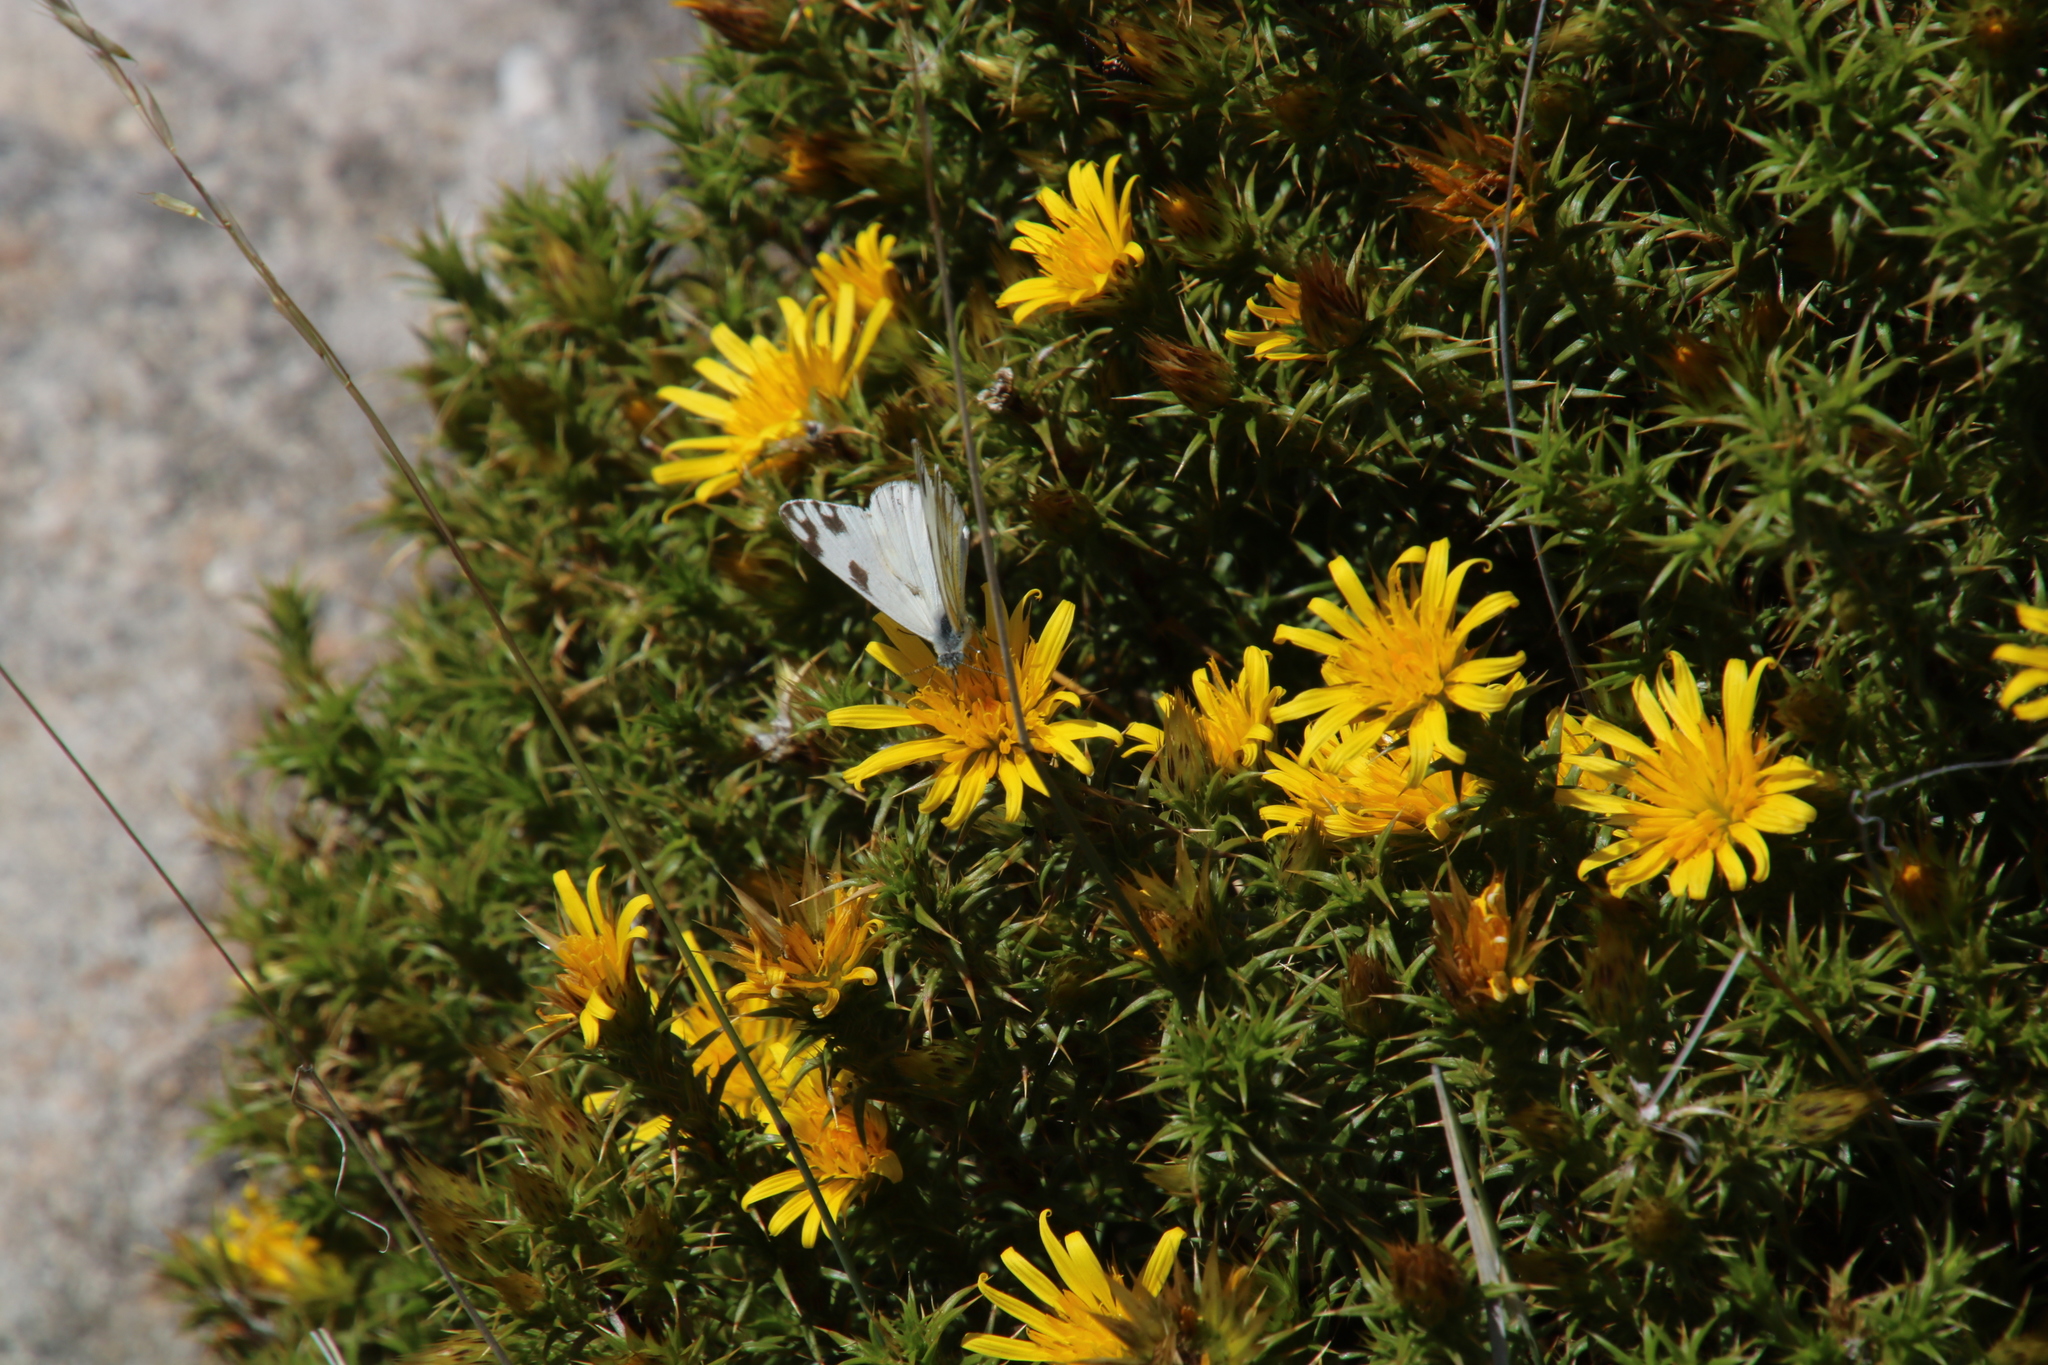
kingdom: Plantae
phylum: Tracheophyta
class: Magnoliopsida
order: Asterales
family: Asteraceae
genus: Cullumia
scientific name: Cullumia bisulca
